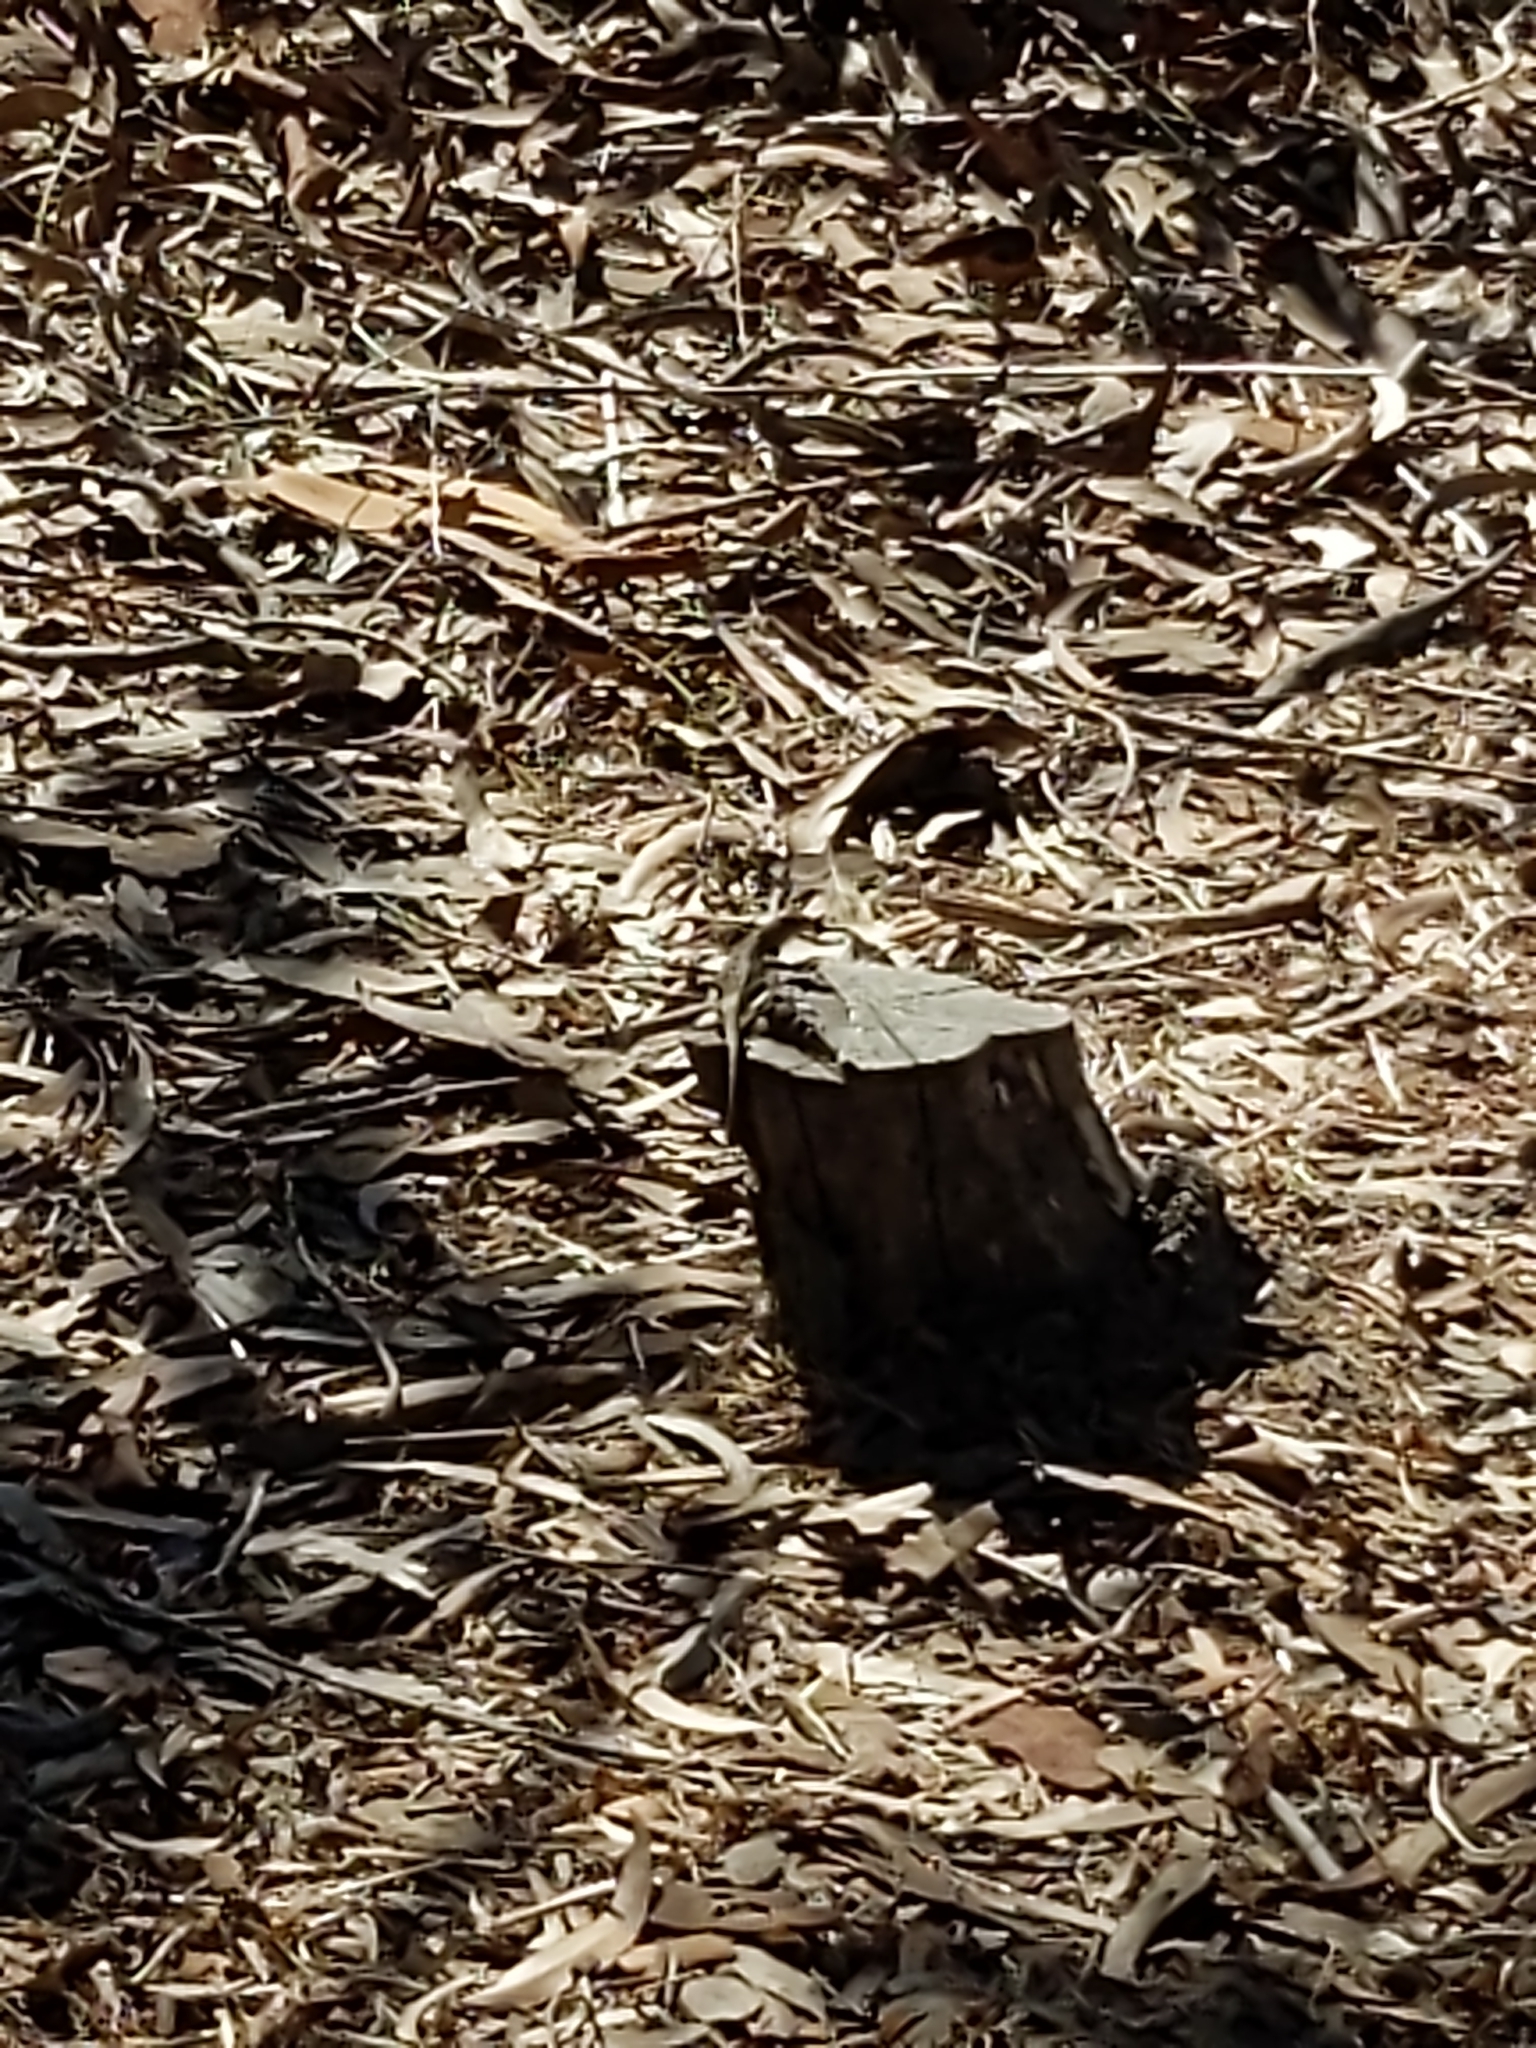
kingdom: Animalia
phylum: Chordata
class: Squamata
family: Phrynosomatidae
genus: Sceloporus
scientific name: Sceloporus occidentalis
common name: Western fence lizard
